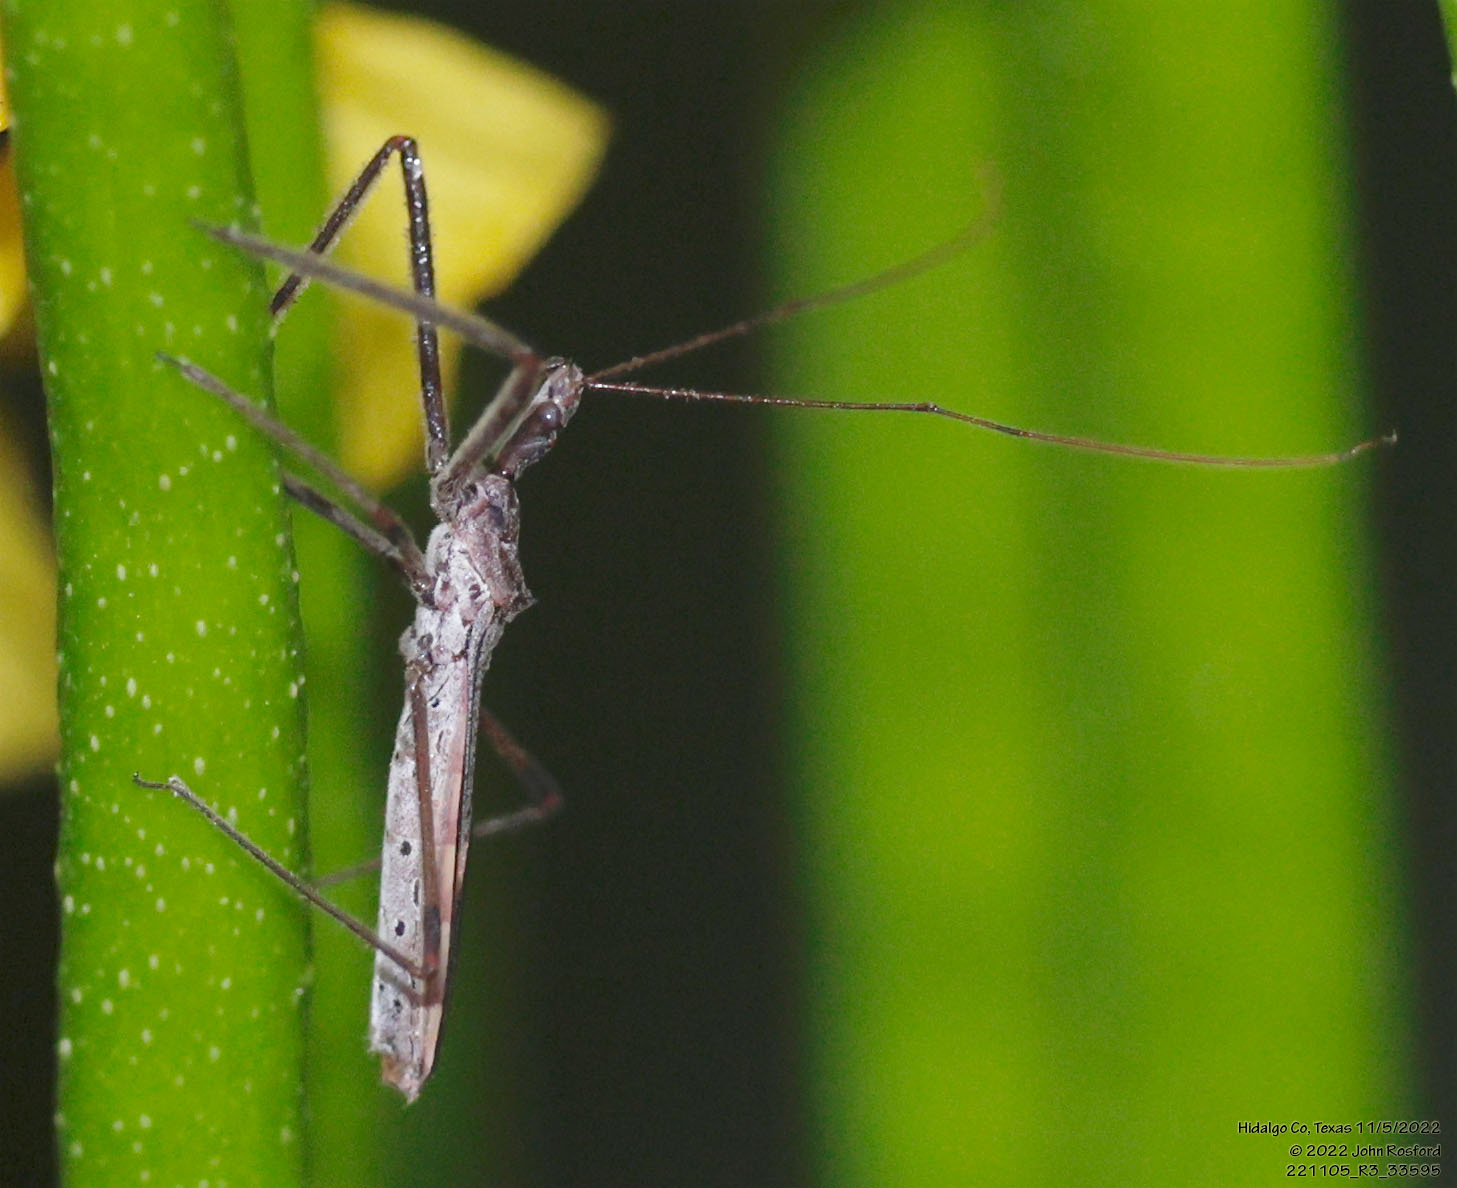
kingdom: Animalia
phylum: Arthropoda
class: Insecta
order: Hemiptera
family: Reduviidae
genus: Zelus
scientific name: Zelus tetracanthus
